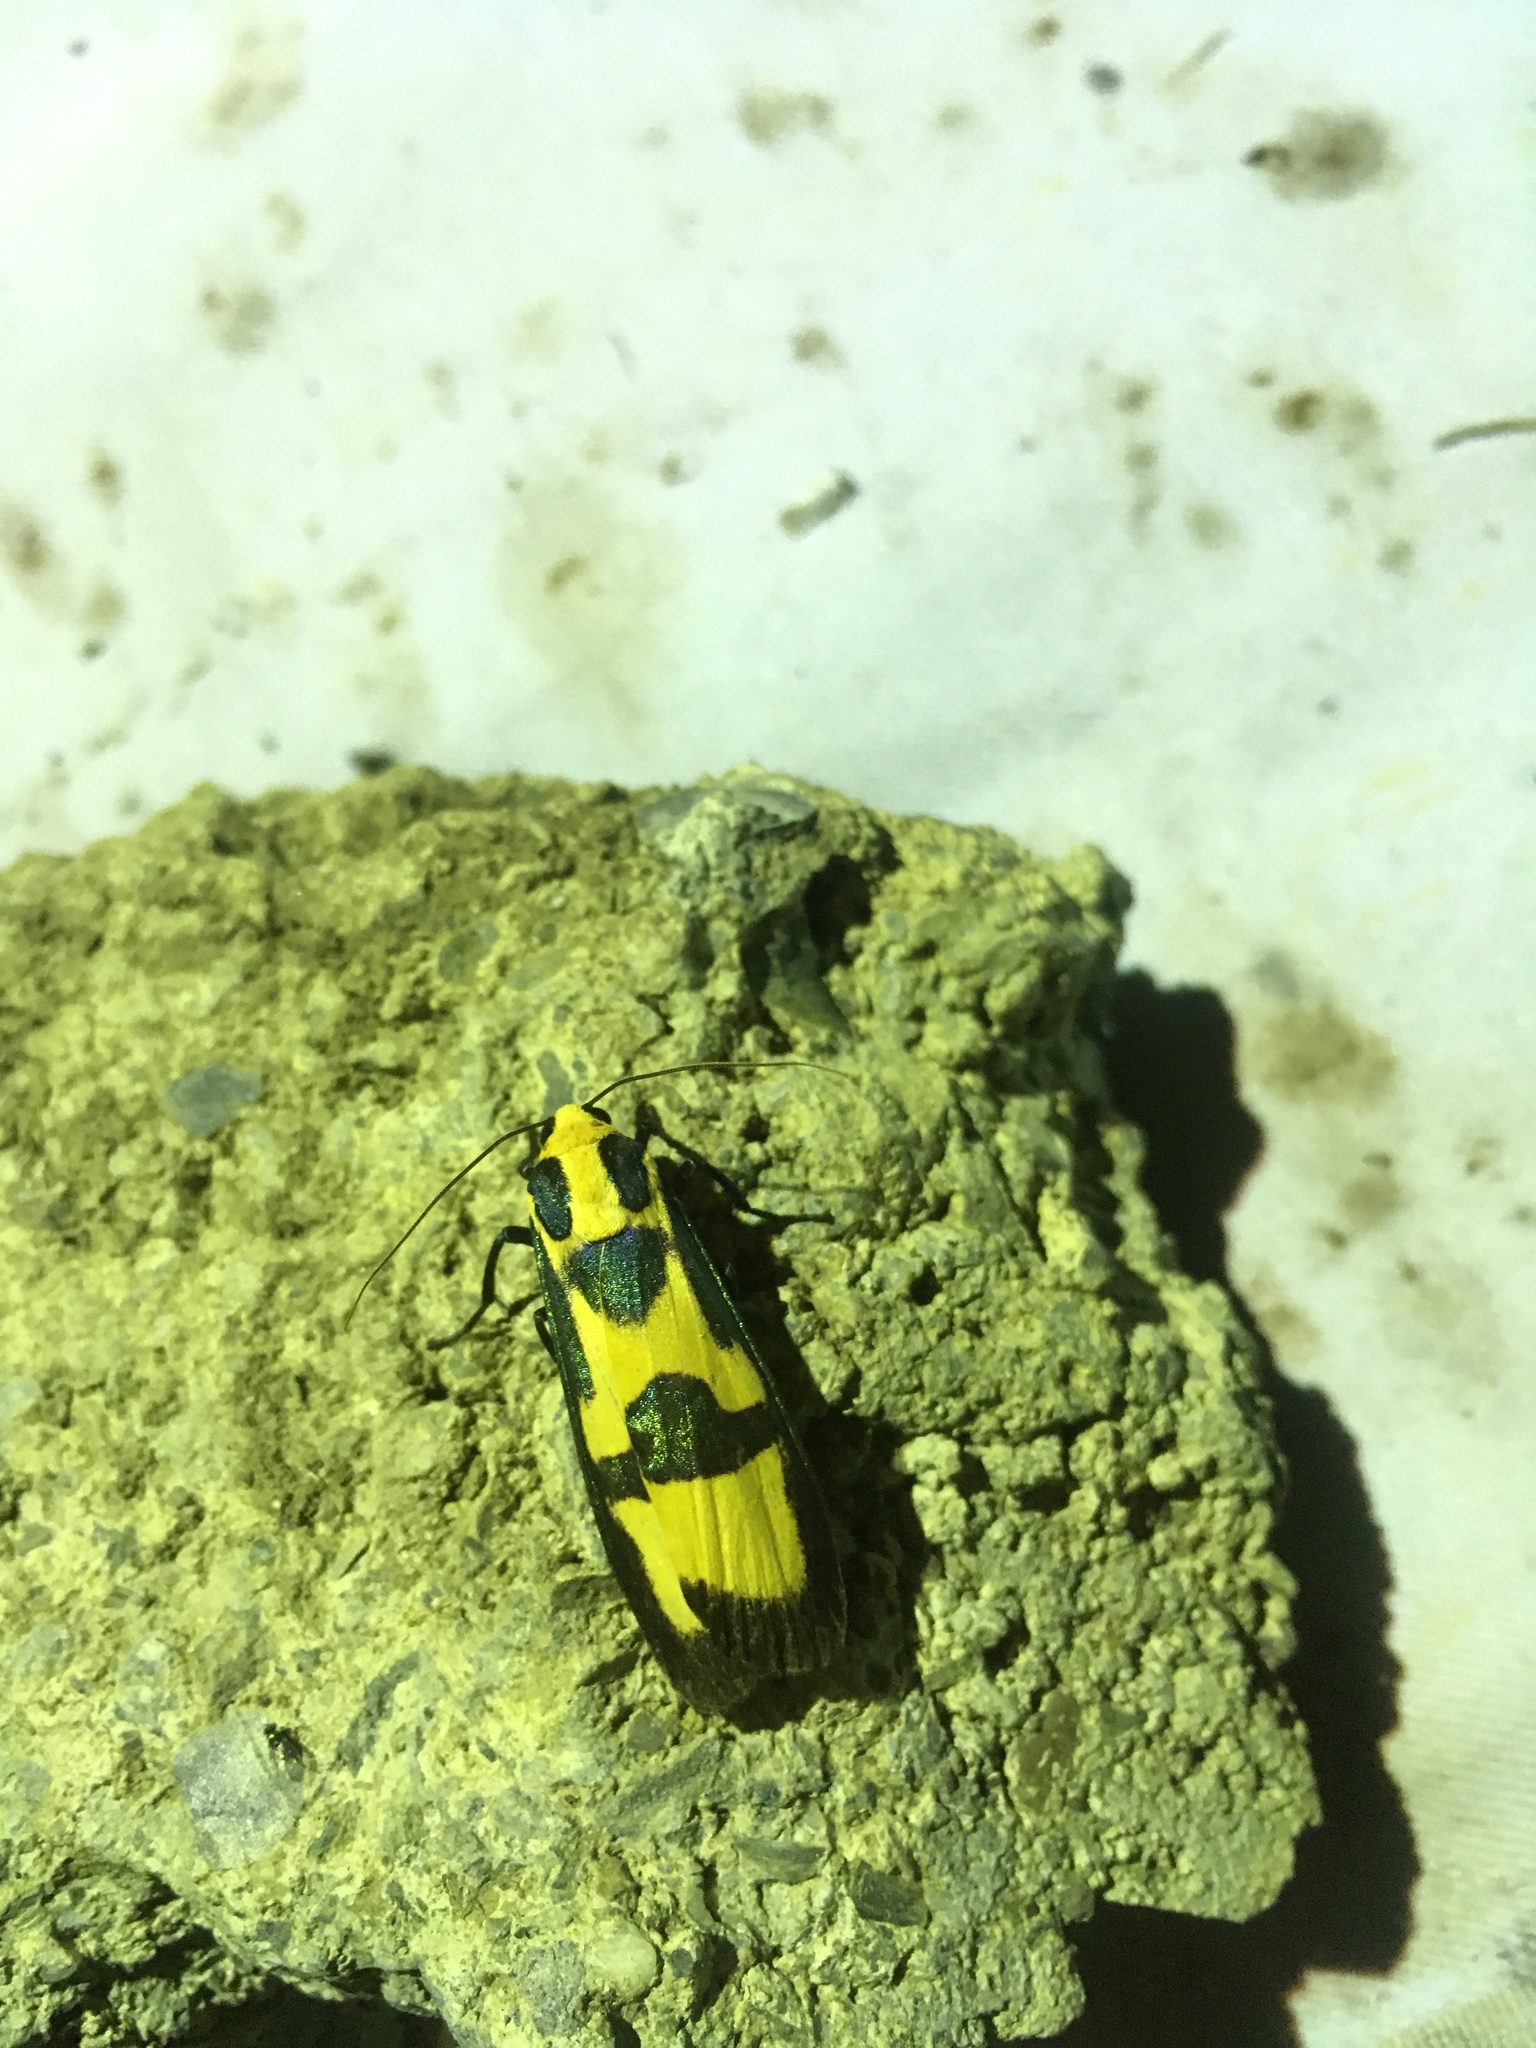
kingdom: Animalia
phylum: Arthropoda
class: Insecta
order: Lepidoptera
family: Erebidae
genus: Chrysaeglia
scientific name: Chrysaeglia magnifica
